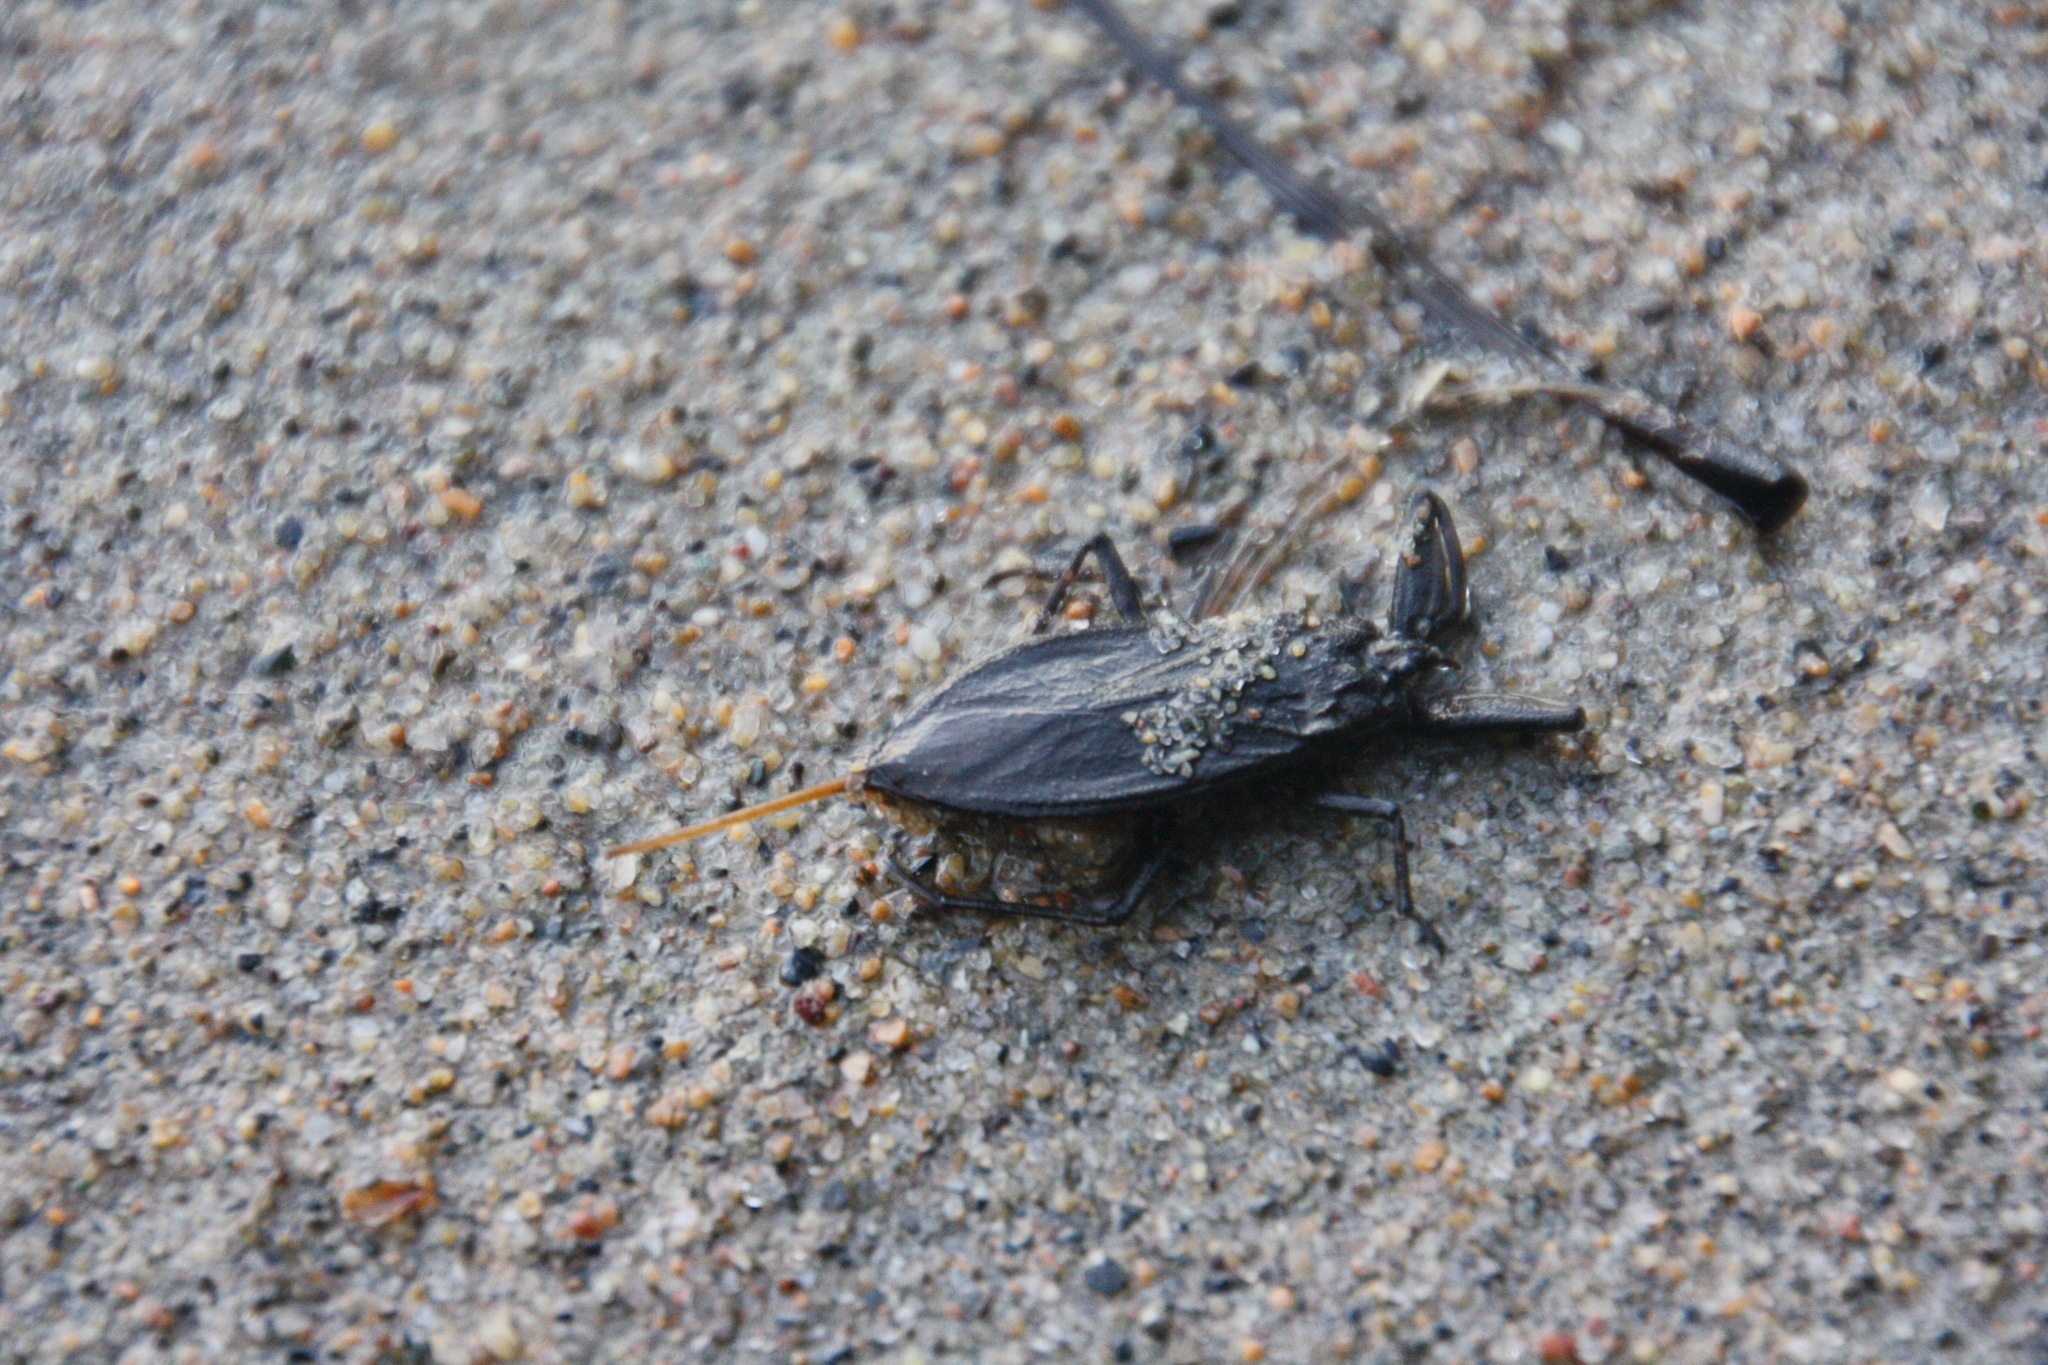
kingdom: Animalia
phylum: Arthropoda
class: Insecta
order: Hemiptera
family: Nepidae
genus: Nepa
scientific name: Nepa cinerea
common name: Water scorpion
